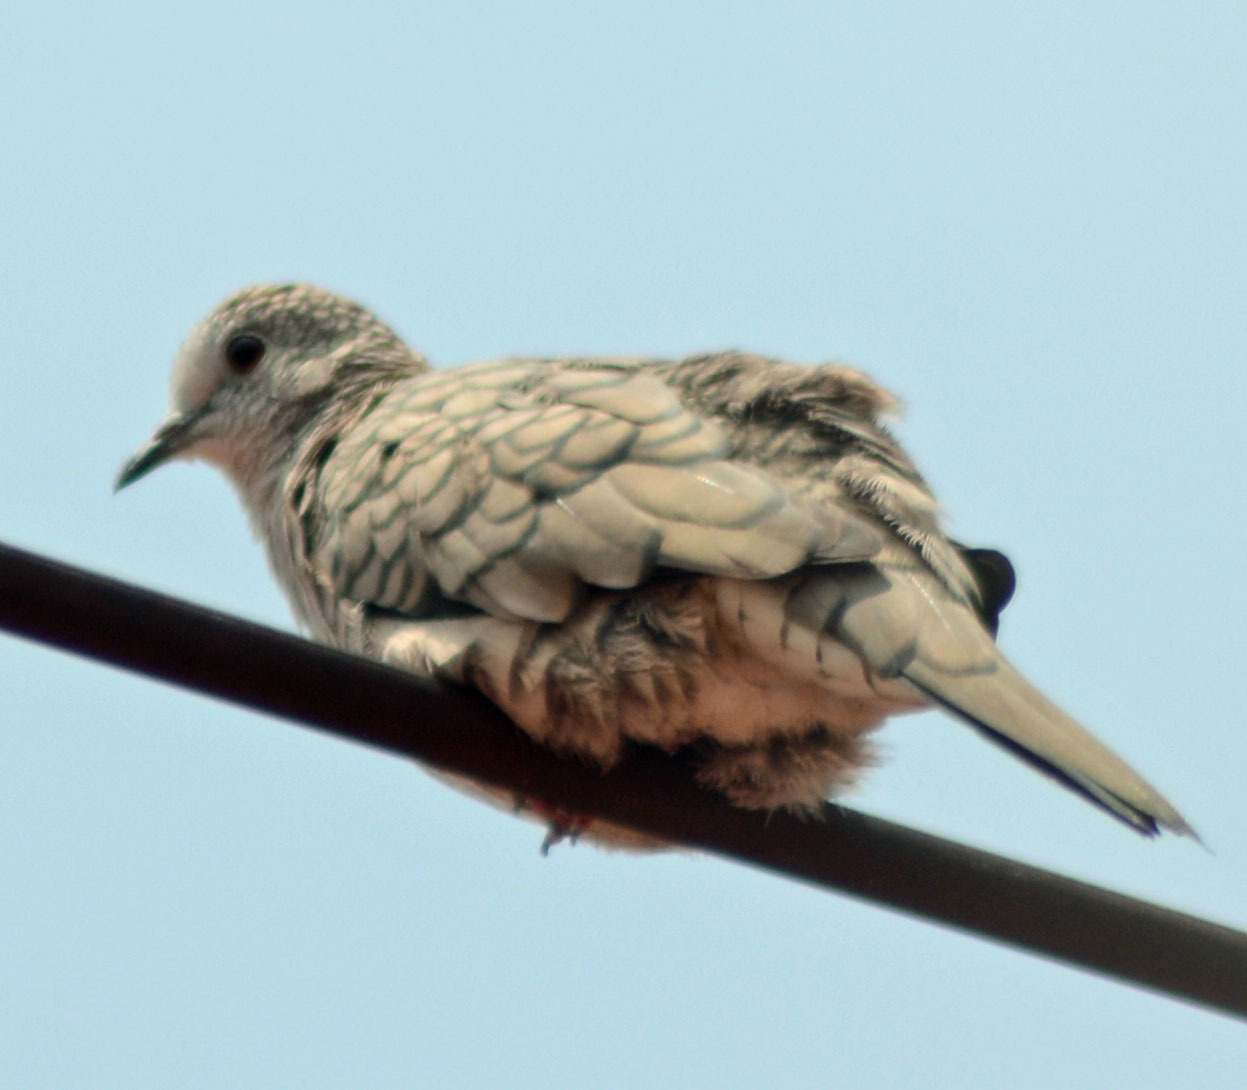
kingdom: Animalia
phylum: Chordata
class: Aves
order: Columbiformes
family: Columbidae
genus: Columbina
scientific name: Columbina inca
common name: Inca dove
